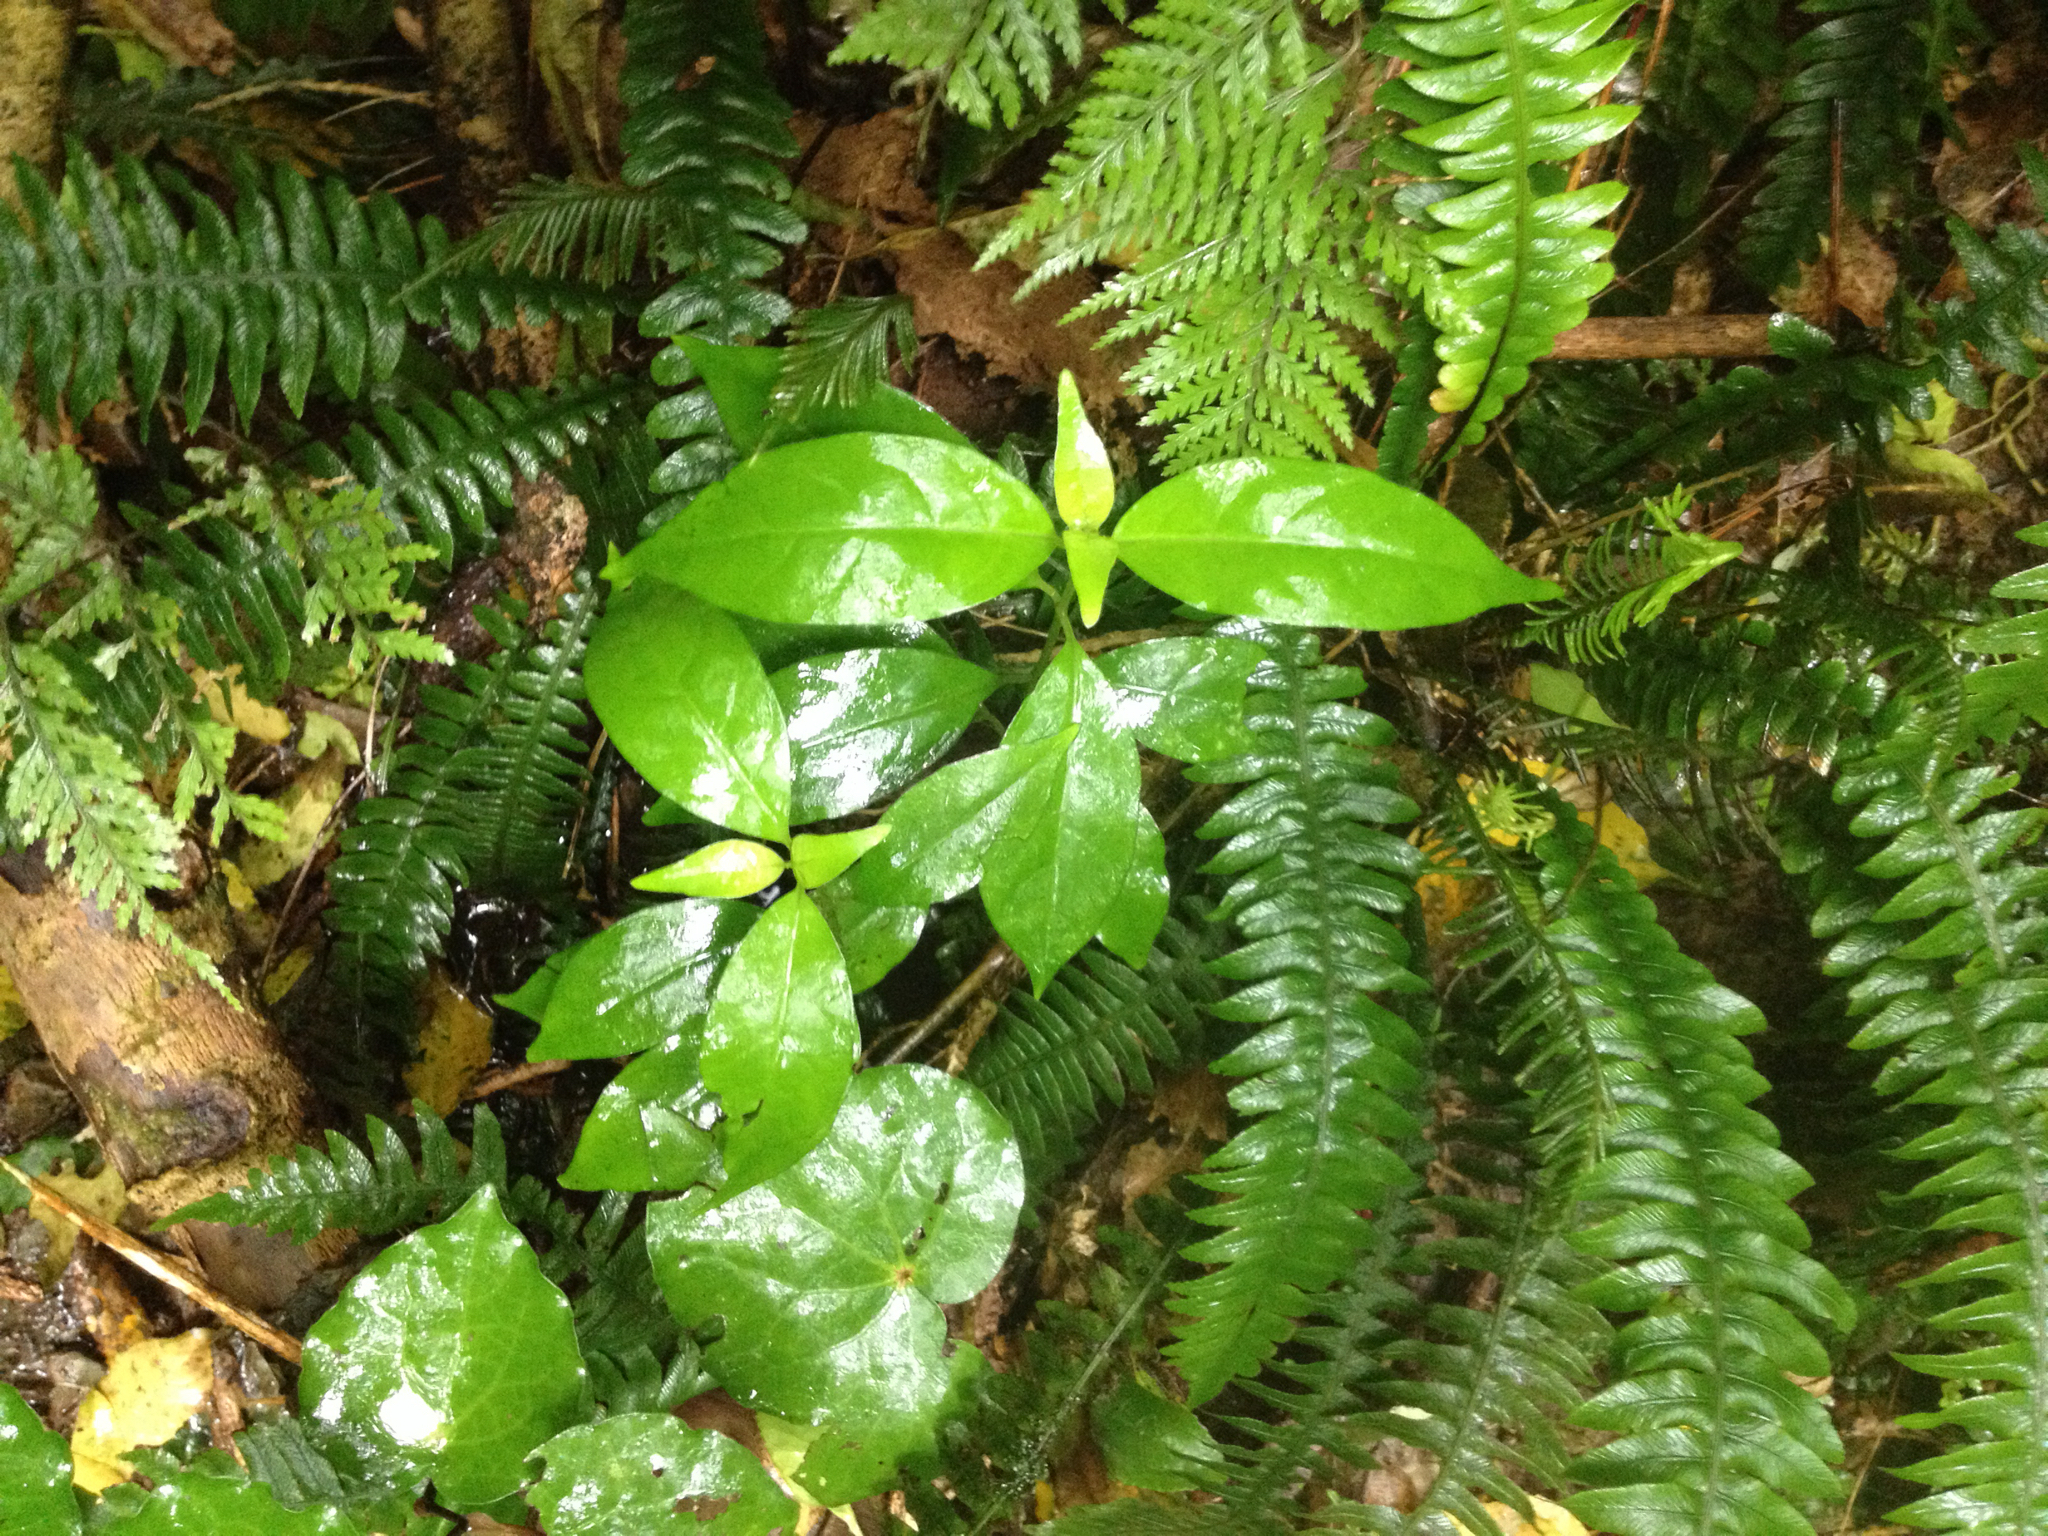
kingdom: Plantae
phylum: Tracheophyta
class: Magnoliopsida
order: Gentianales
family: Loganiaceae
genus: Geniostoma
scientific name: Geniostoma ligustrifolium
